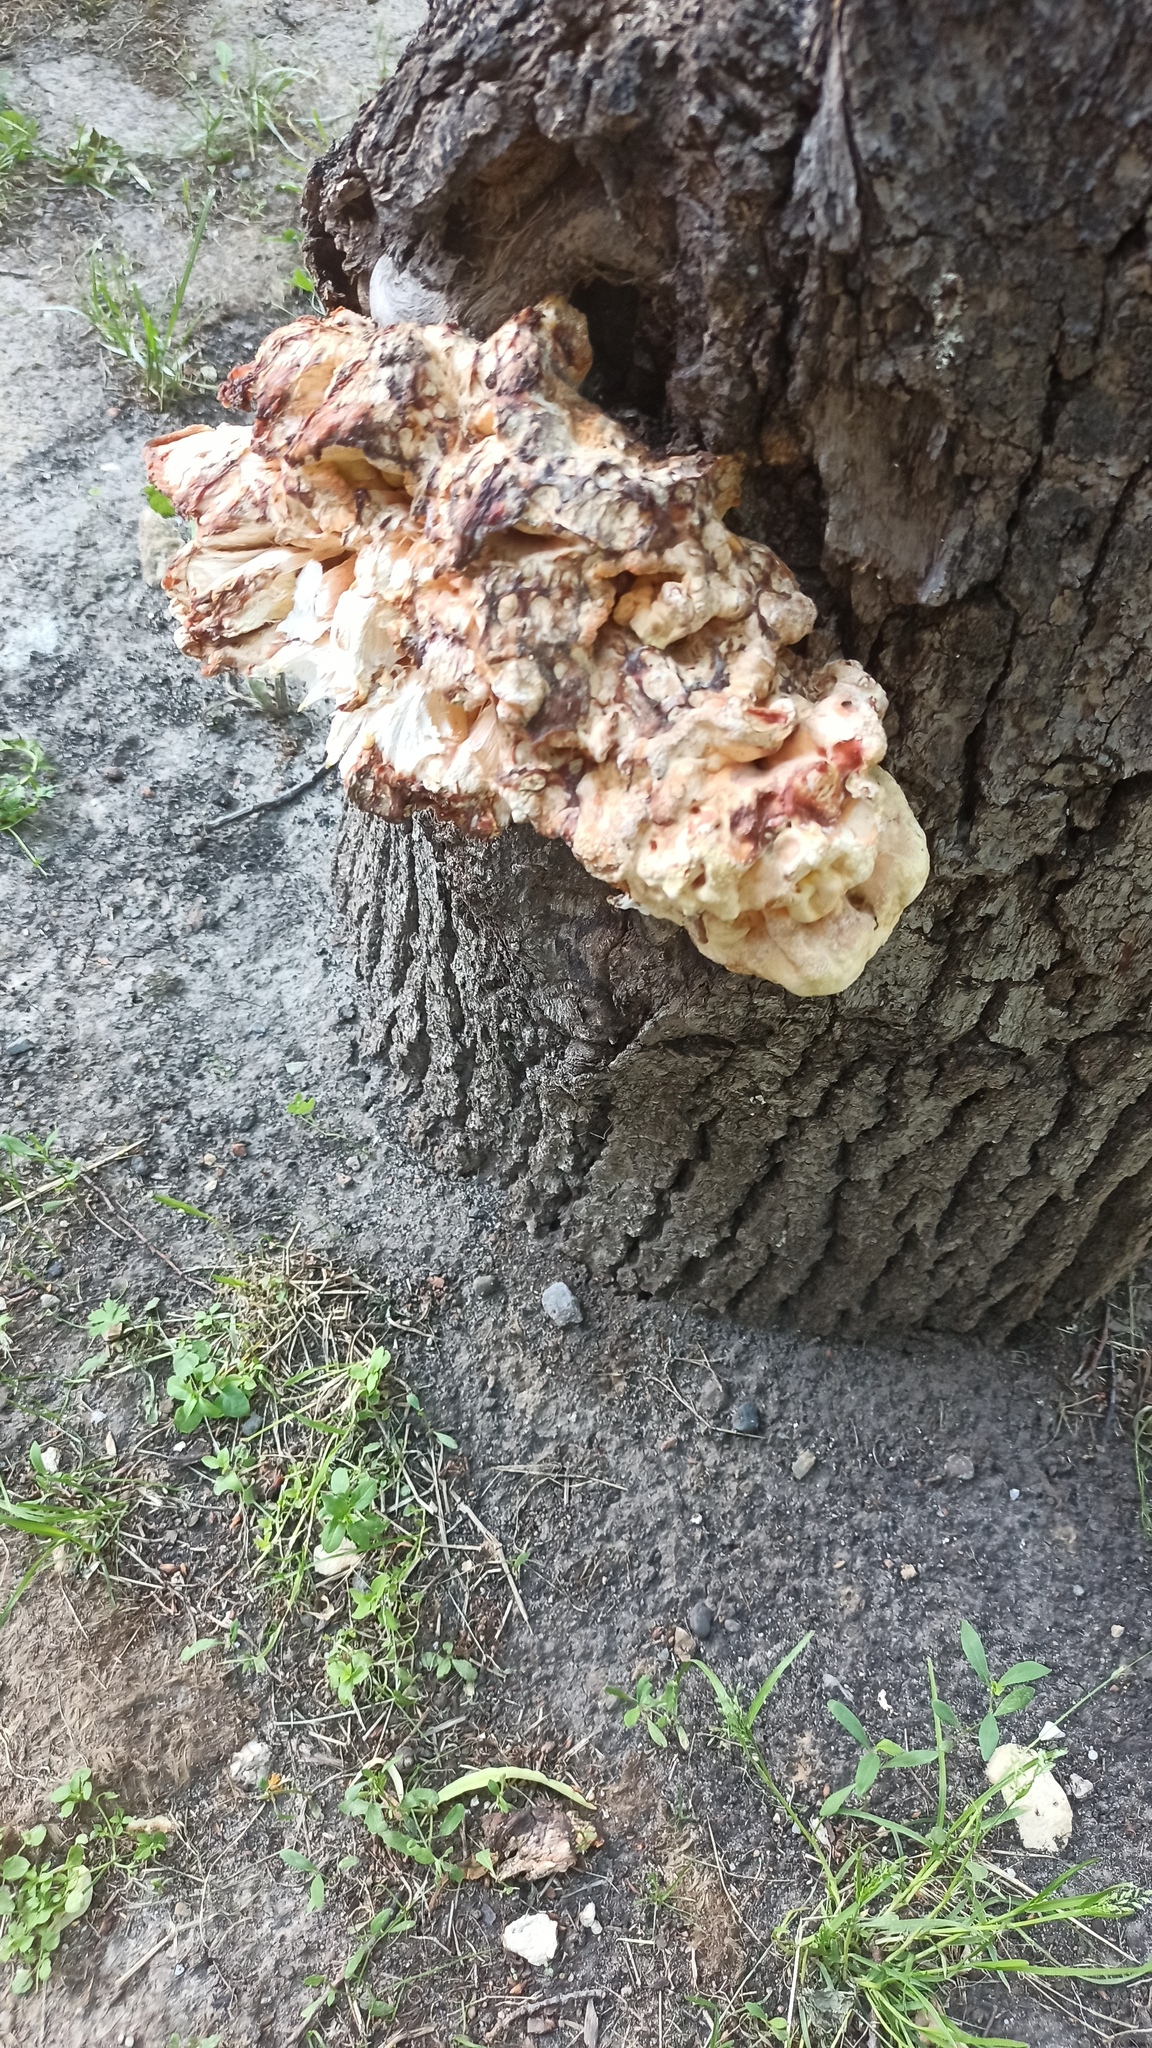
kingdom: Fungi
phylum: Basidiomycota
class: Agaricomycetes
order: Polyporales
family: Laetiporaceae
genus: Laetiporus
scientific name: Laetiporus sulphureus
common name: Chicken of the woods
